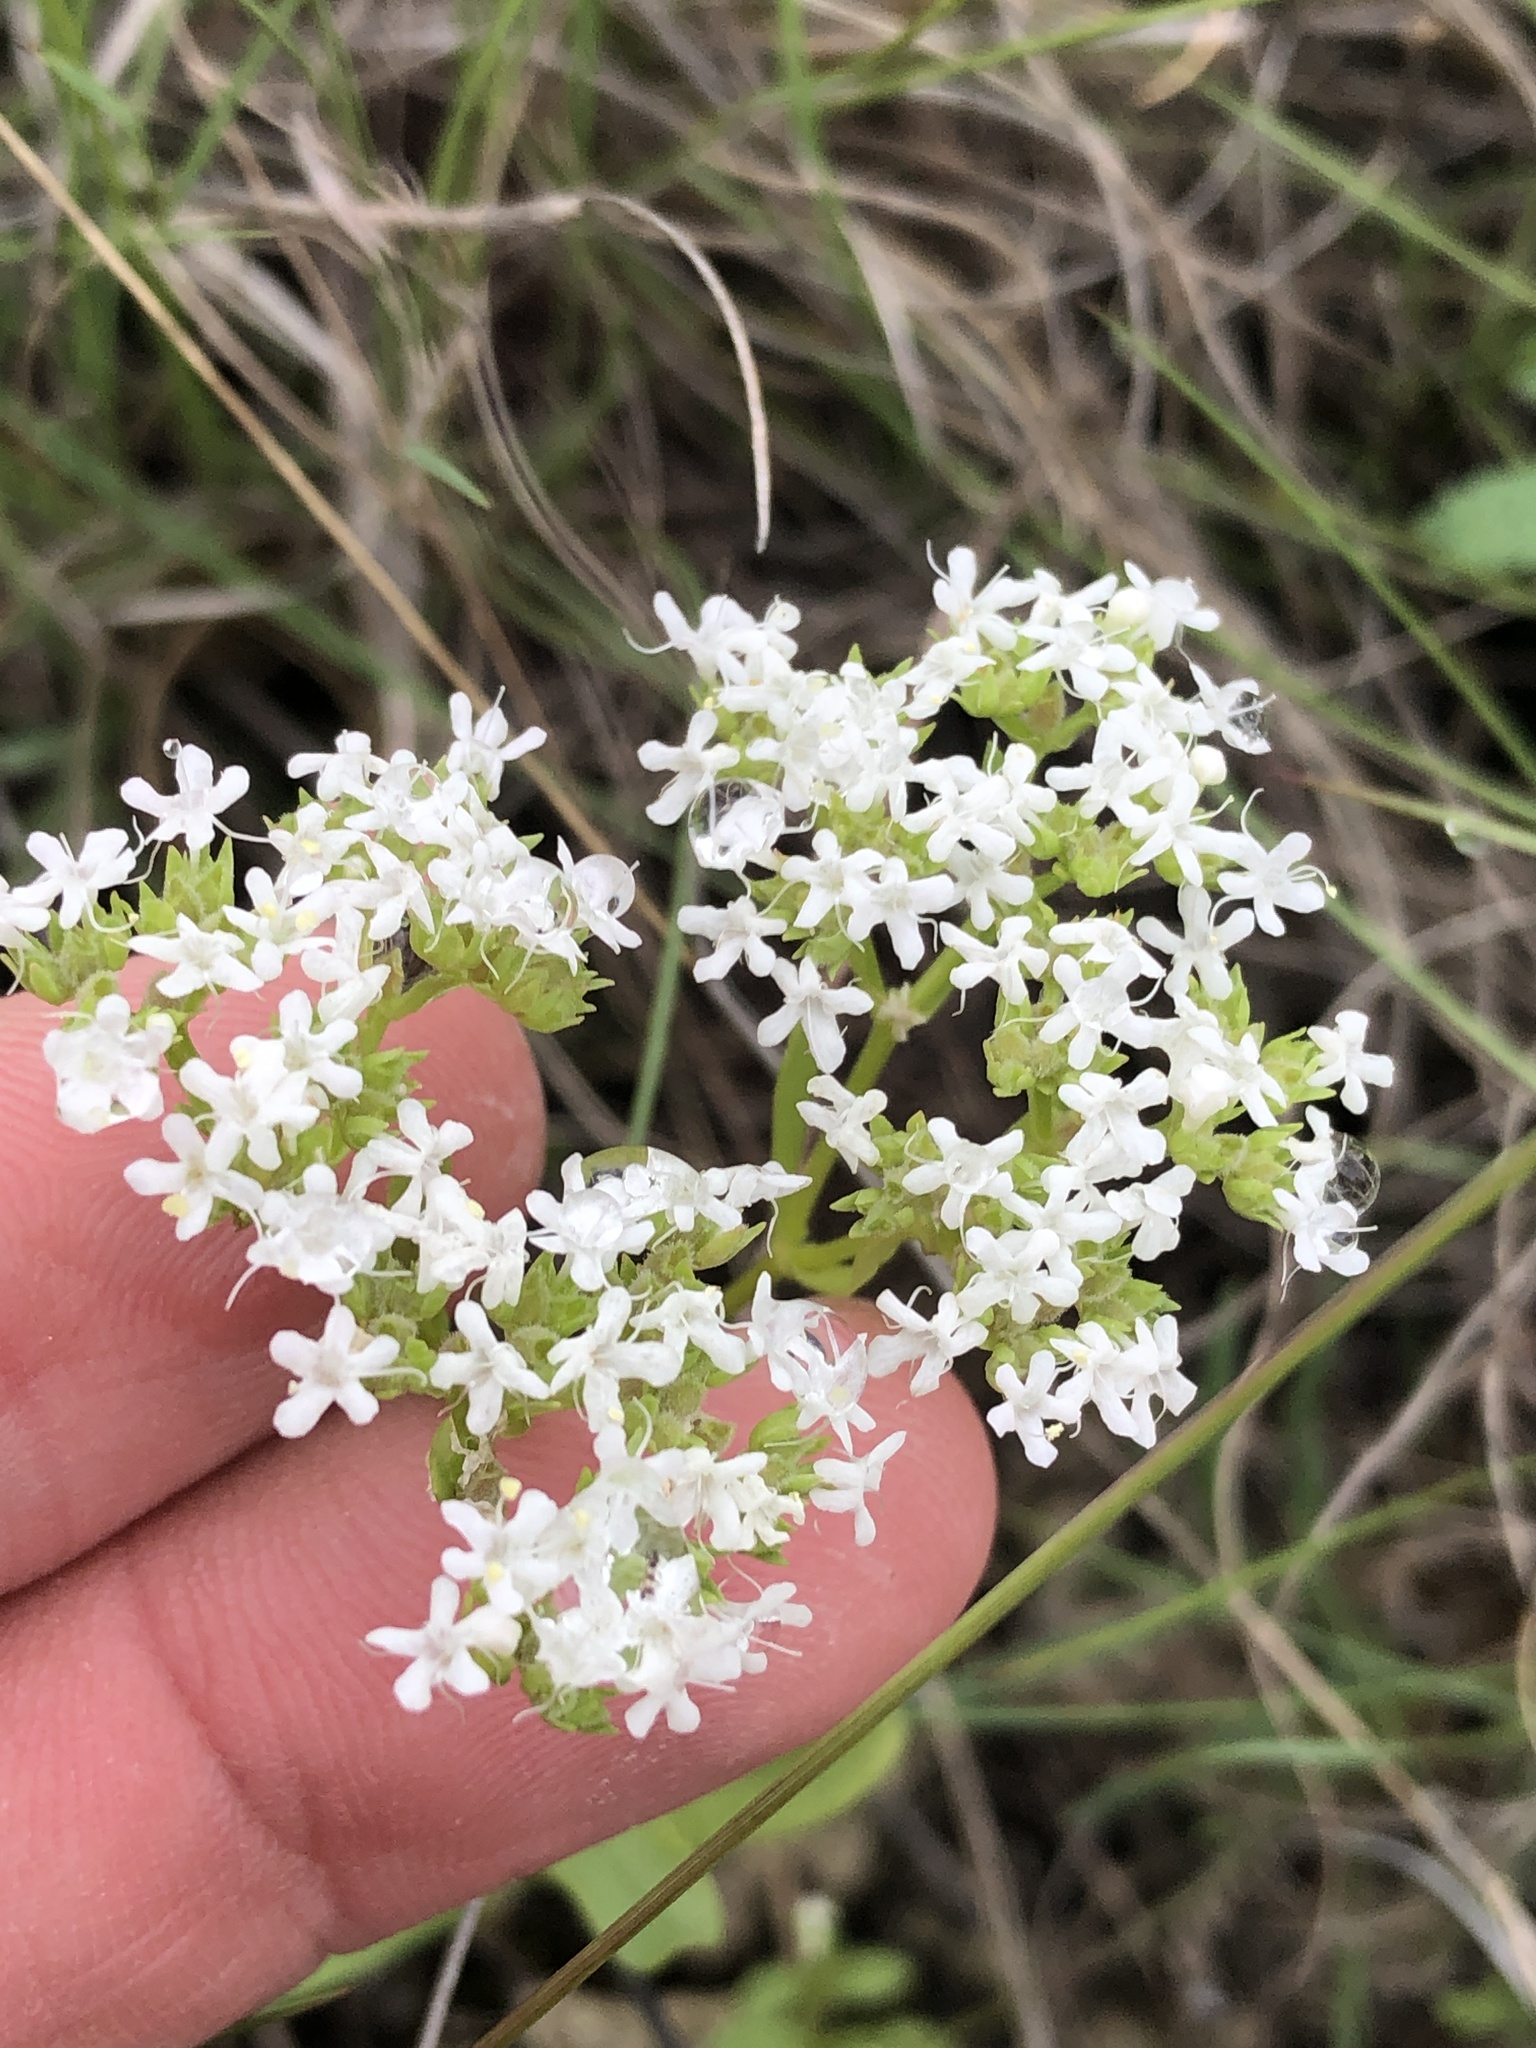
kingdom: Plantae
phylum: Tracheophyta
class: Magnoliopsida
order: Dipsacales
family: Caprifoliaceae
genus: Valerianella
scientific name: Valerianella amarella
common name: Hariy cornsalad
